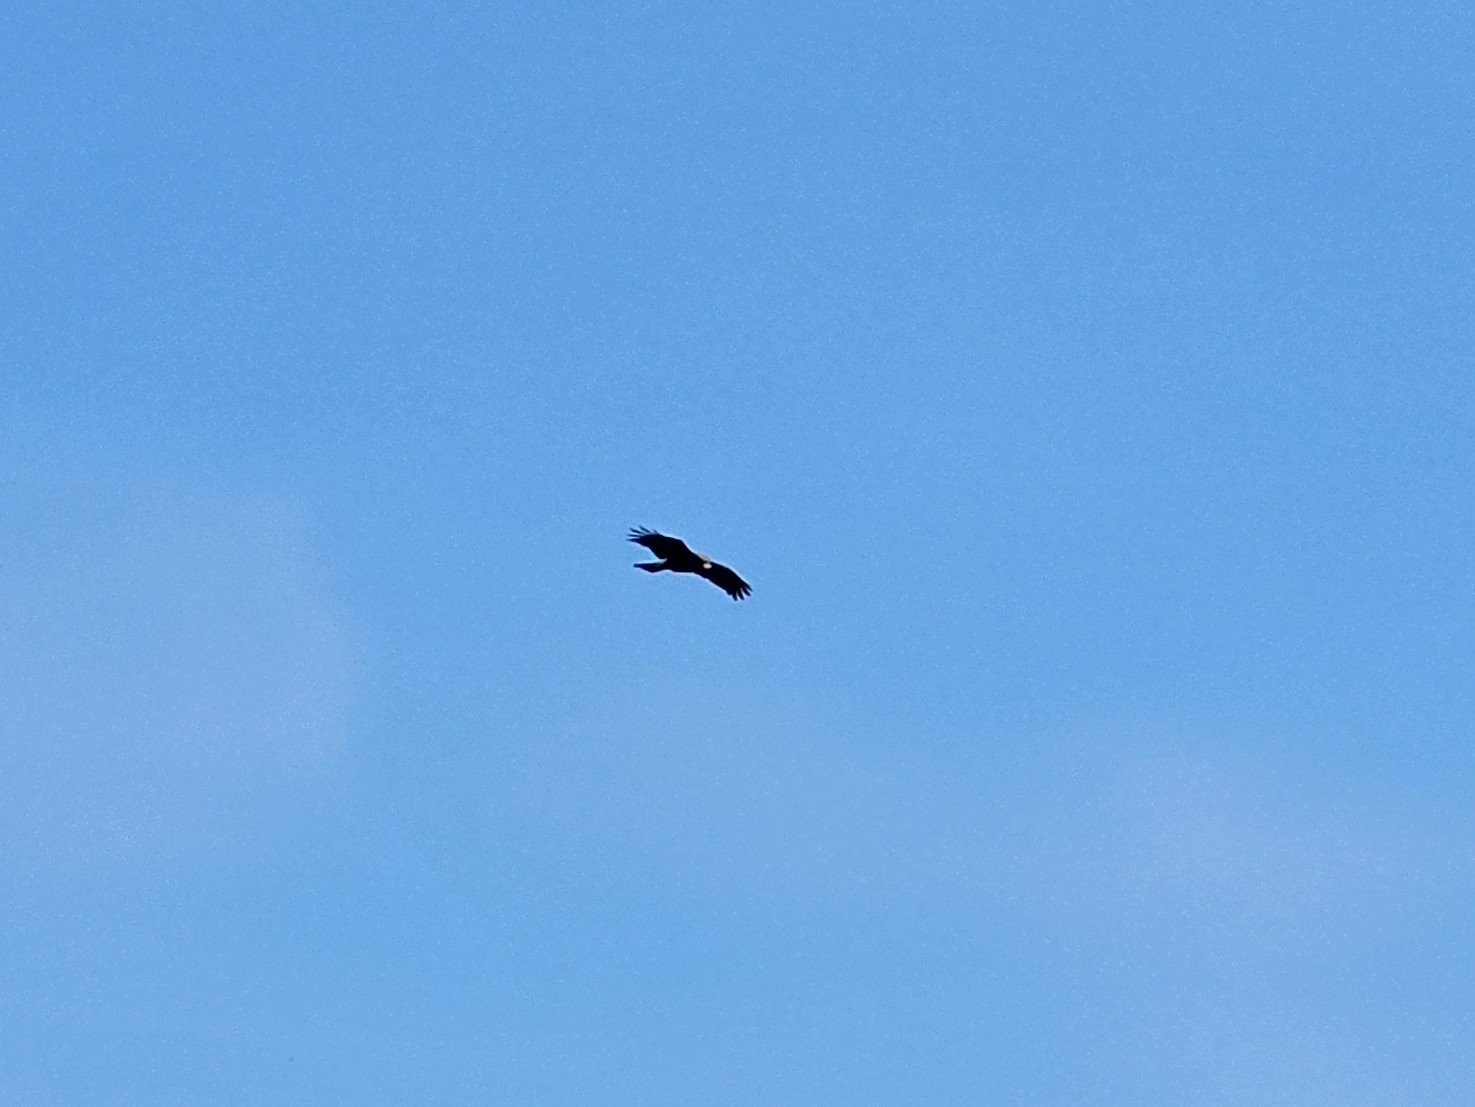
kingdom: Animalia
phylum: Chordata
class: Aves
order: Accipitriformes
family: Accipitridae
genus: Milvus
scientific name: Milvus migrans
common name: Black kite
